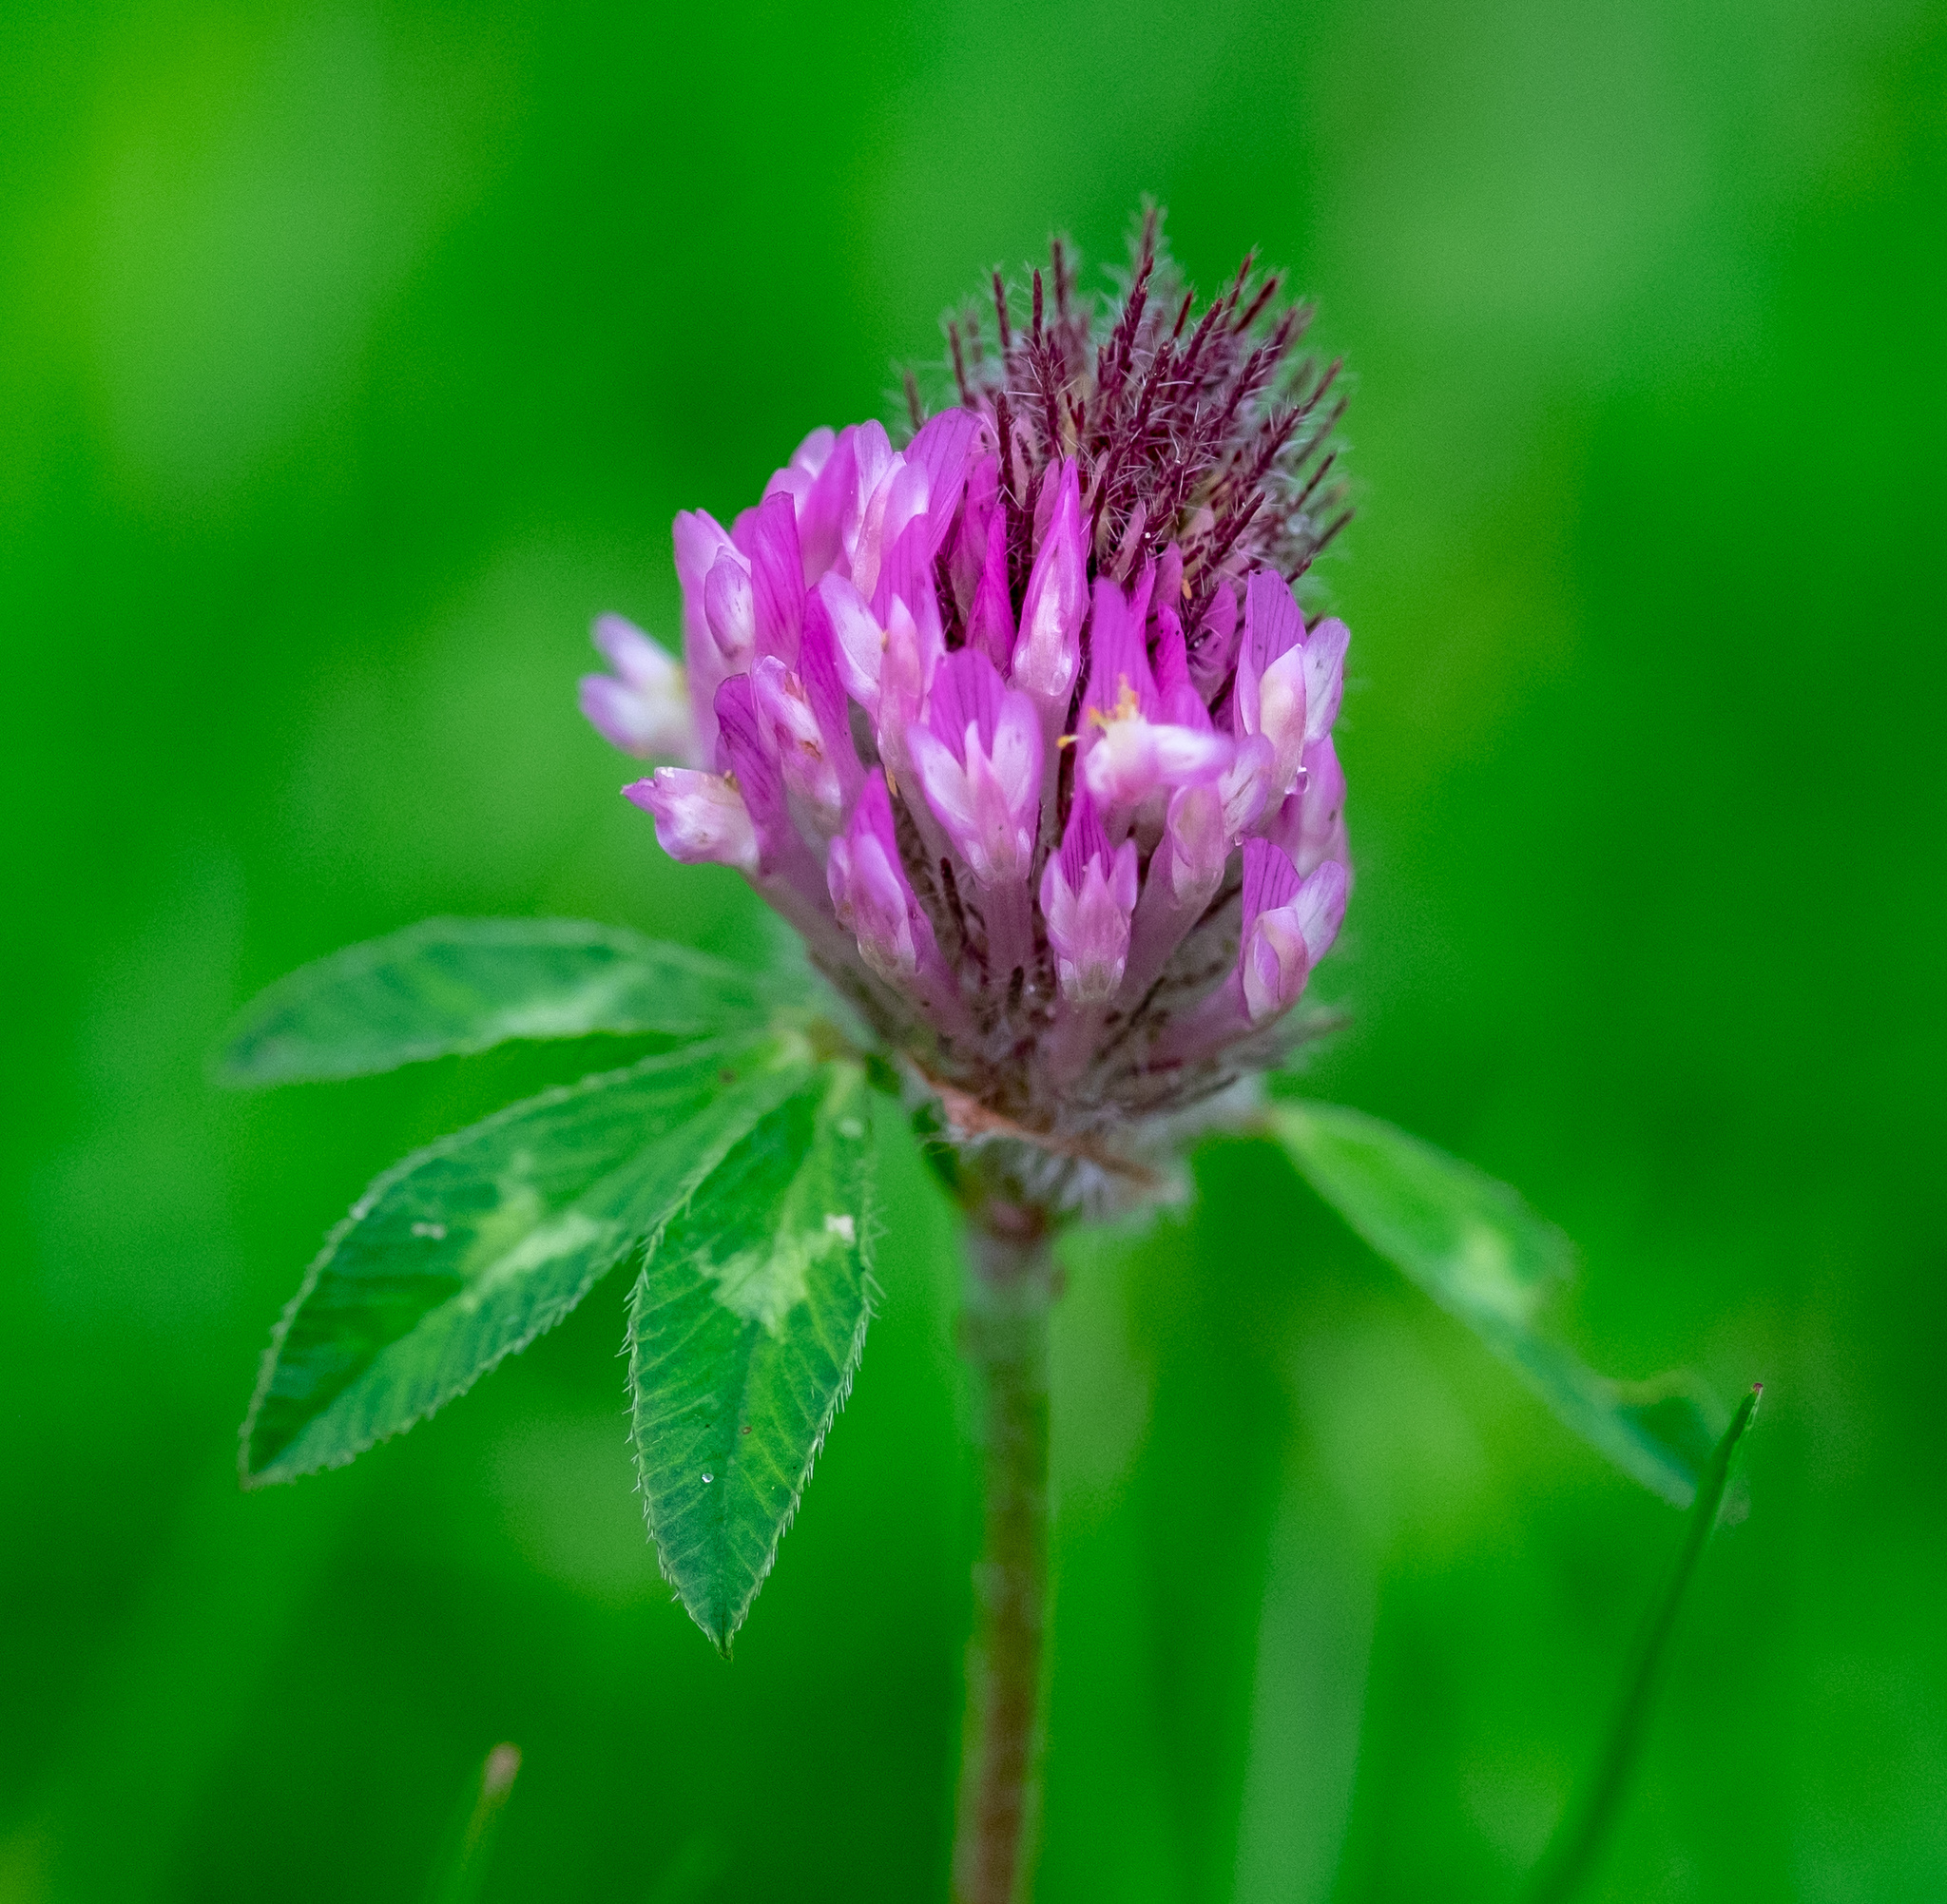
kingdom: Plantae
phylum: Tracheophyta
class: Magnoliopsida
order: Fabales
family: Fabaceae
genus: Trifolium
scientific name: Trifolium pratense
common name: Red clover
